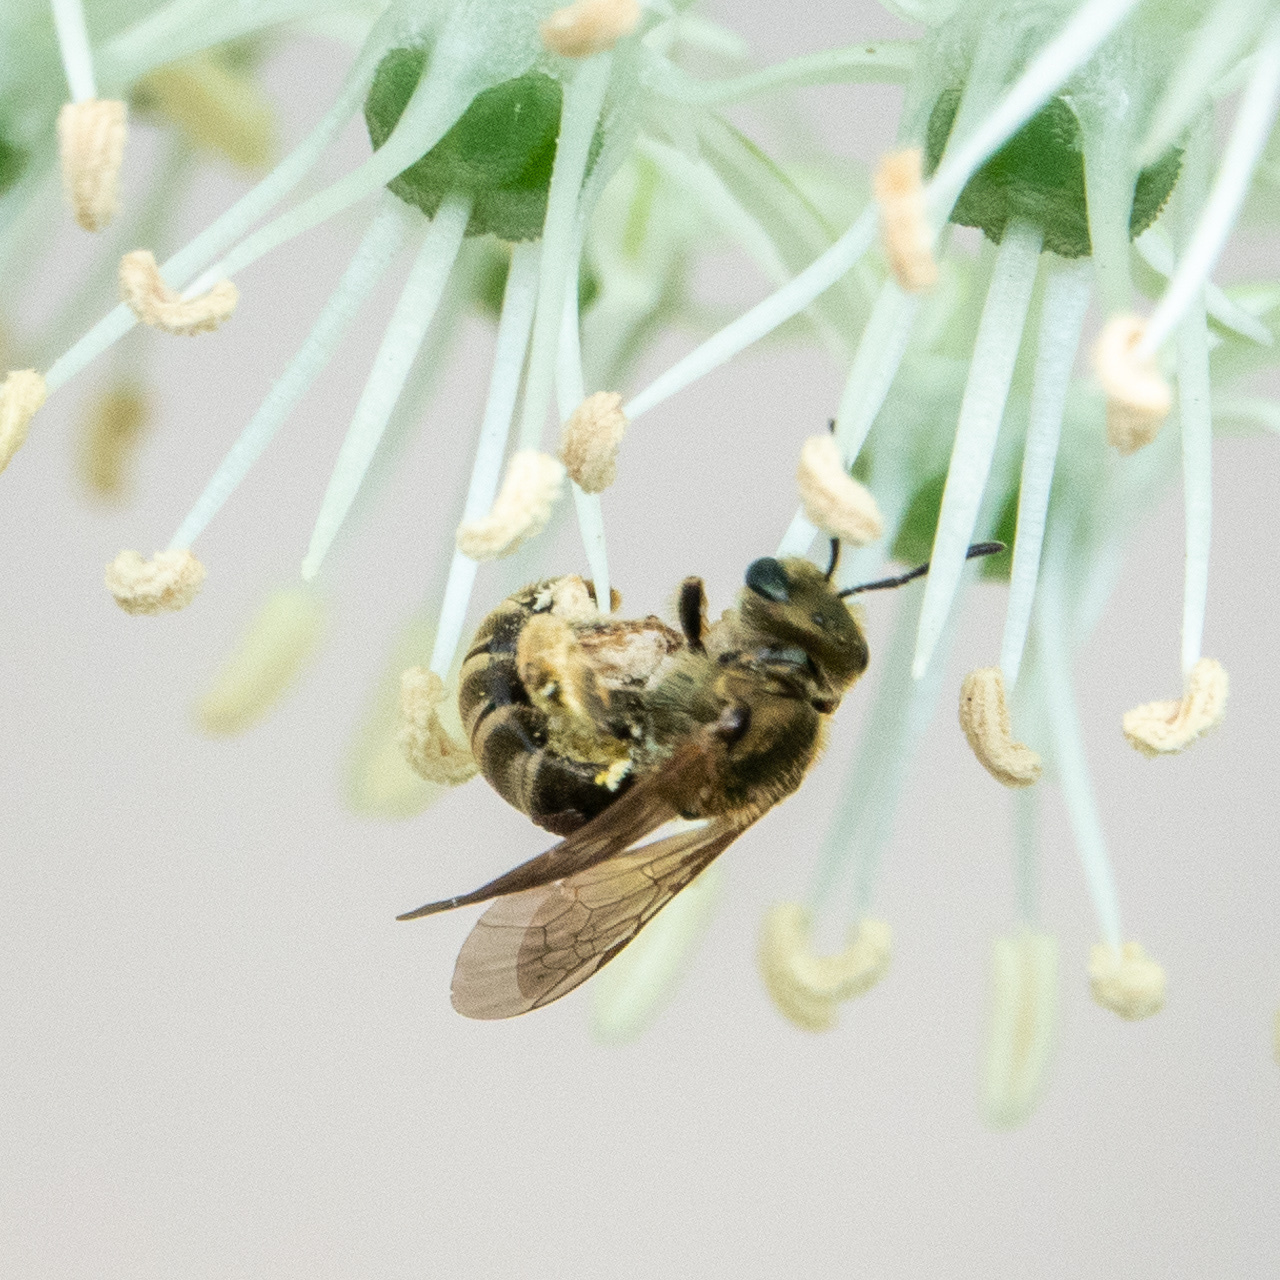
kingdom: Animalia
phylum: Arthropoda
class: Insecta
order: Hymenoptera
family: Halictidae
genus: Halictus
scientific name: Halictus confusus
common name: Southern bronze furrow bee
